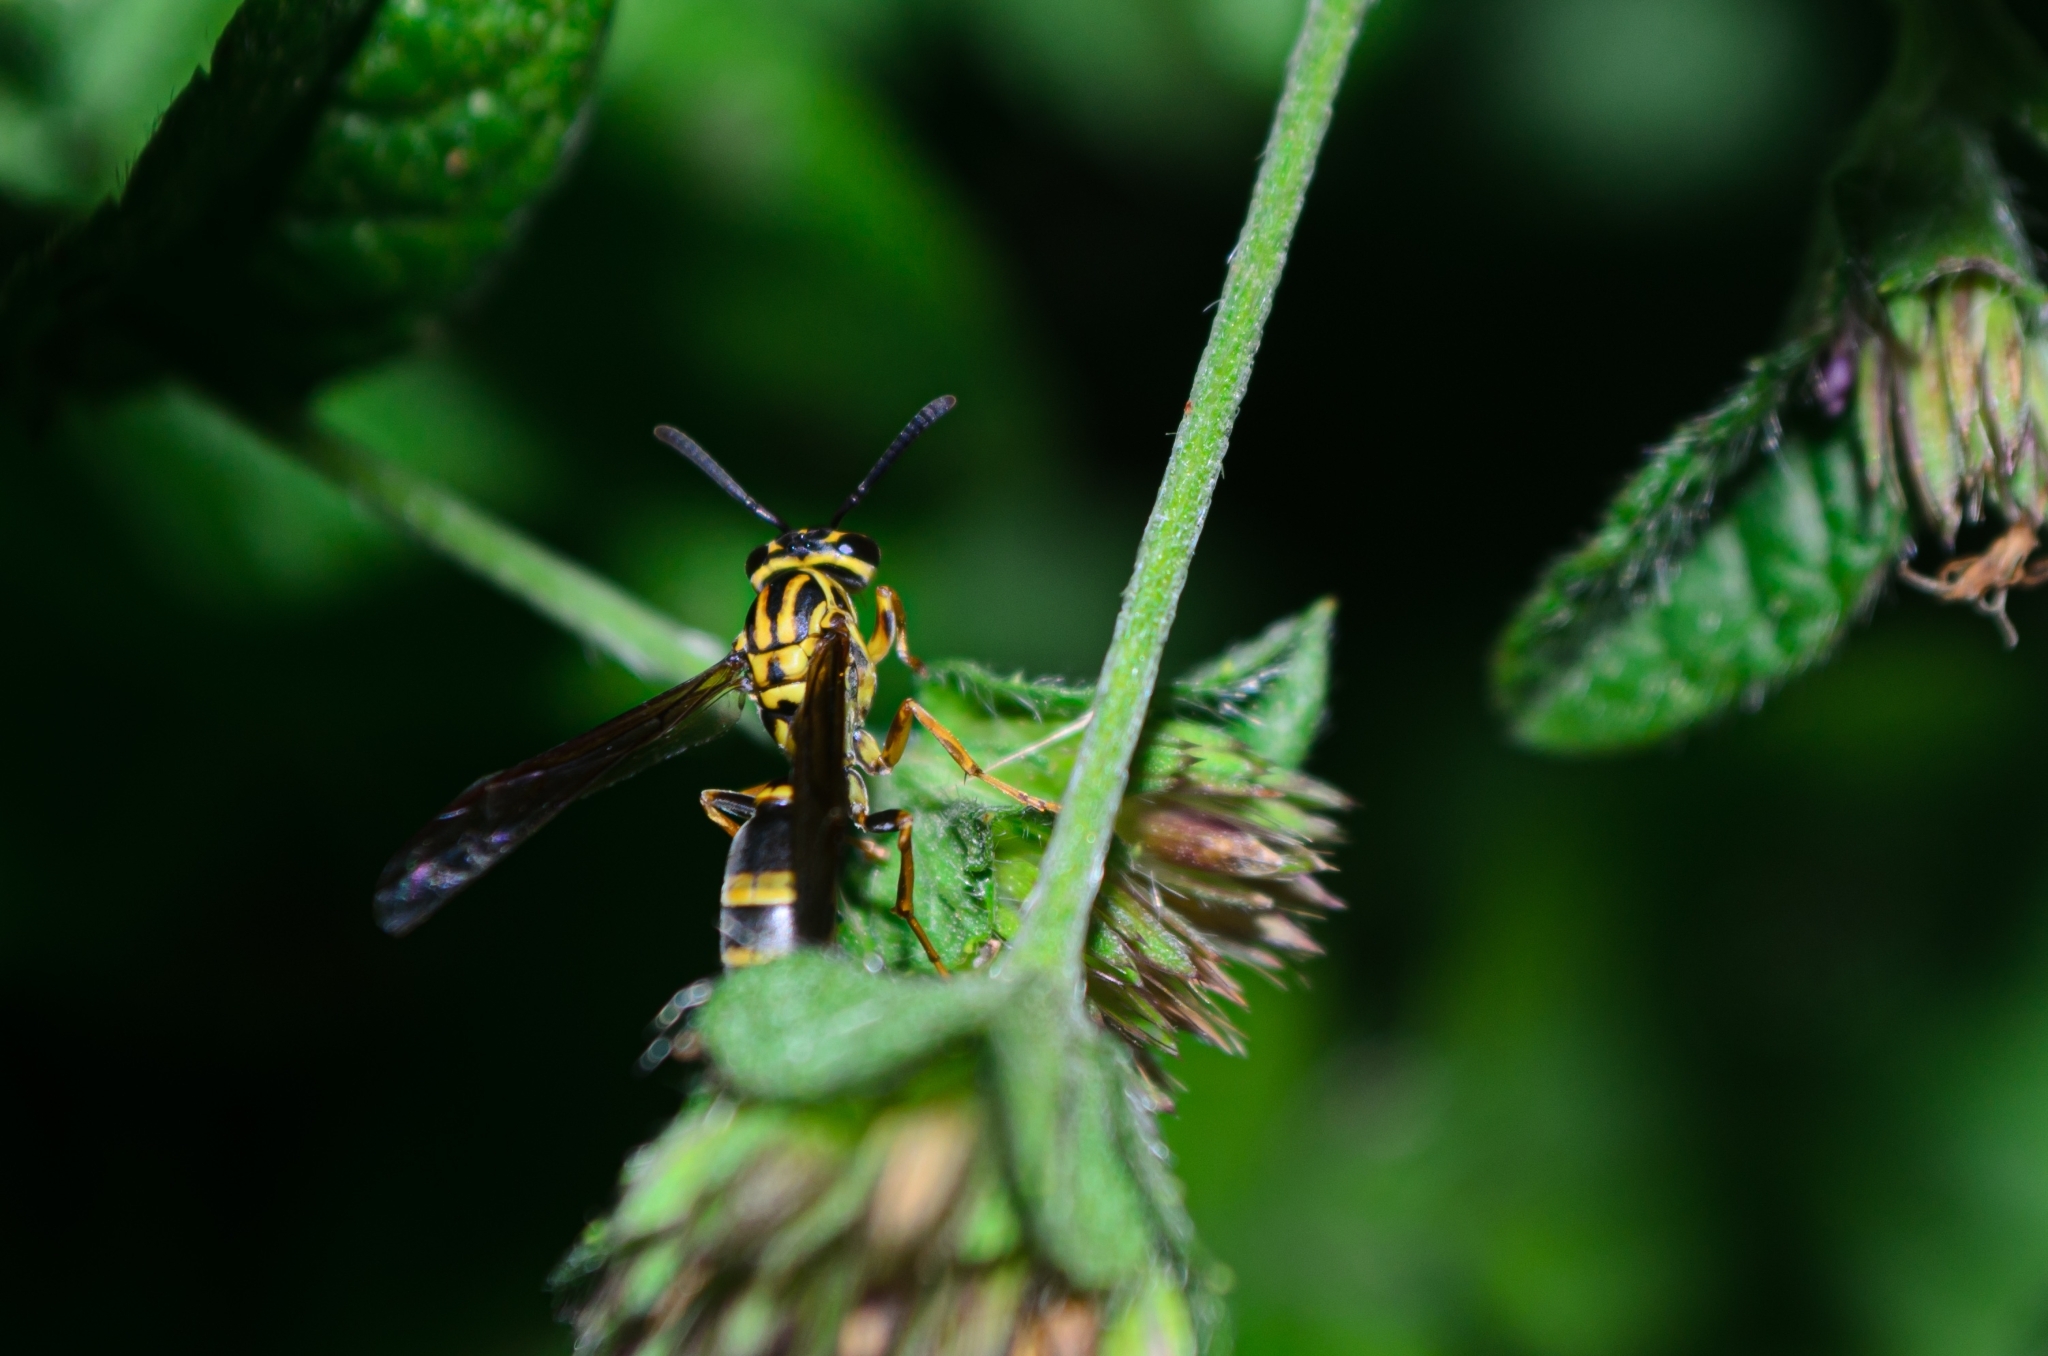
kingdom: Animalia
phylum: Arthropoda
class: Insecta
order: Hymenoptera
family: Eumenidae
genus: Polybia
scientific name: Polybia fastidiosuscula
